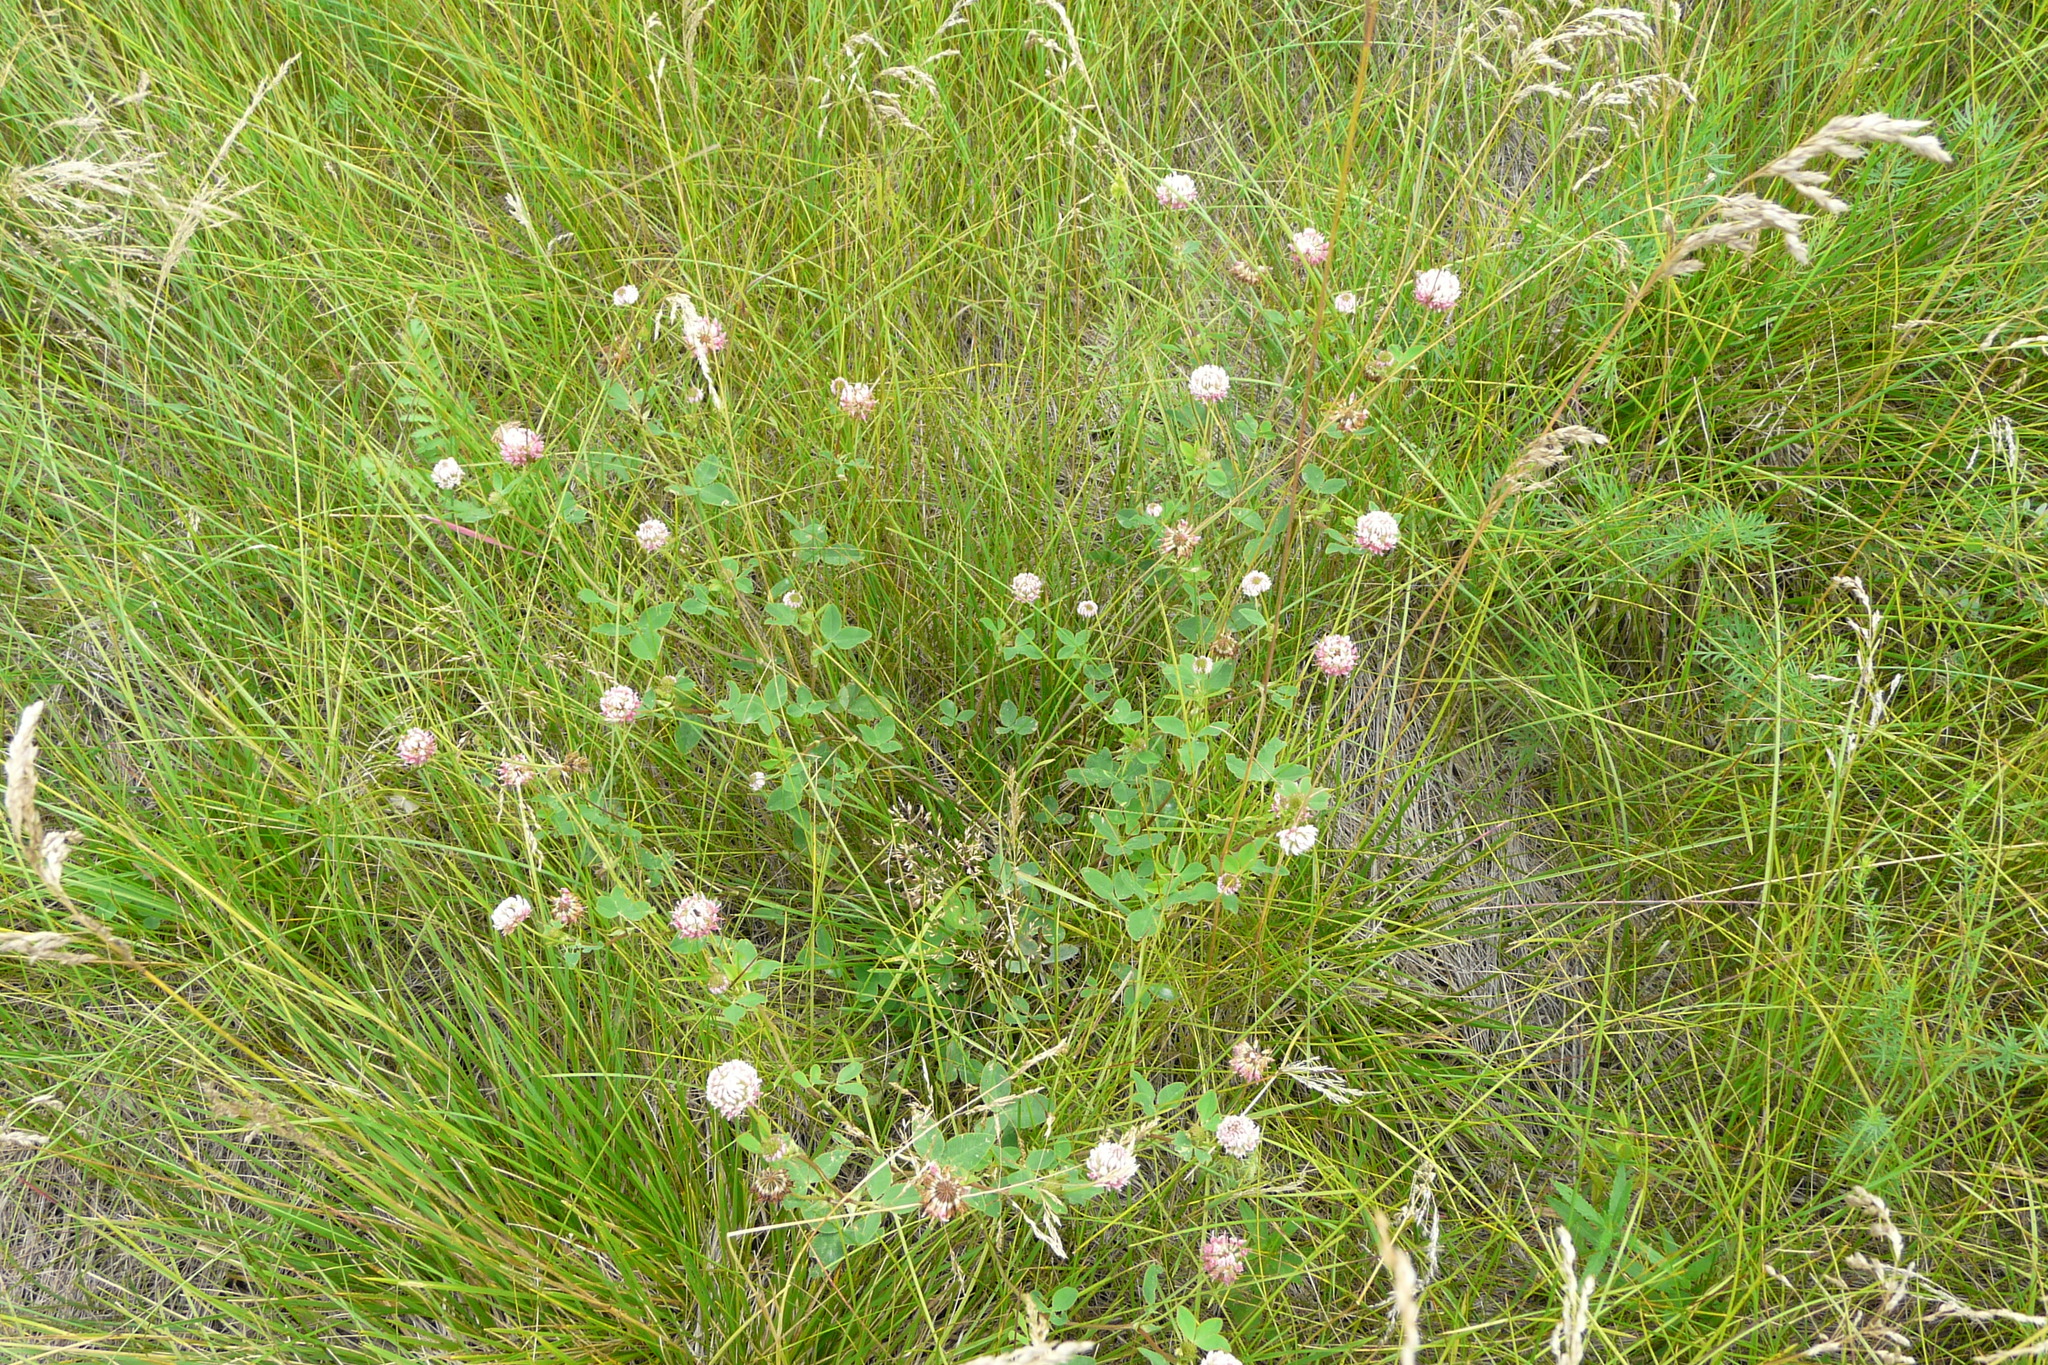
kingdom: Plantae
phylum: Tracheophyta
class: Magnoliopsida
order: Fabales
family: Fabaceae
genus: Trifolium
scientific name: Trifolium hybridum
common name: Alsike clover
